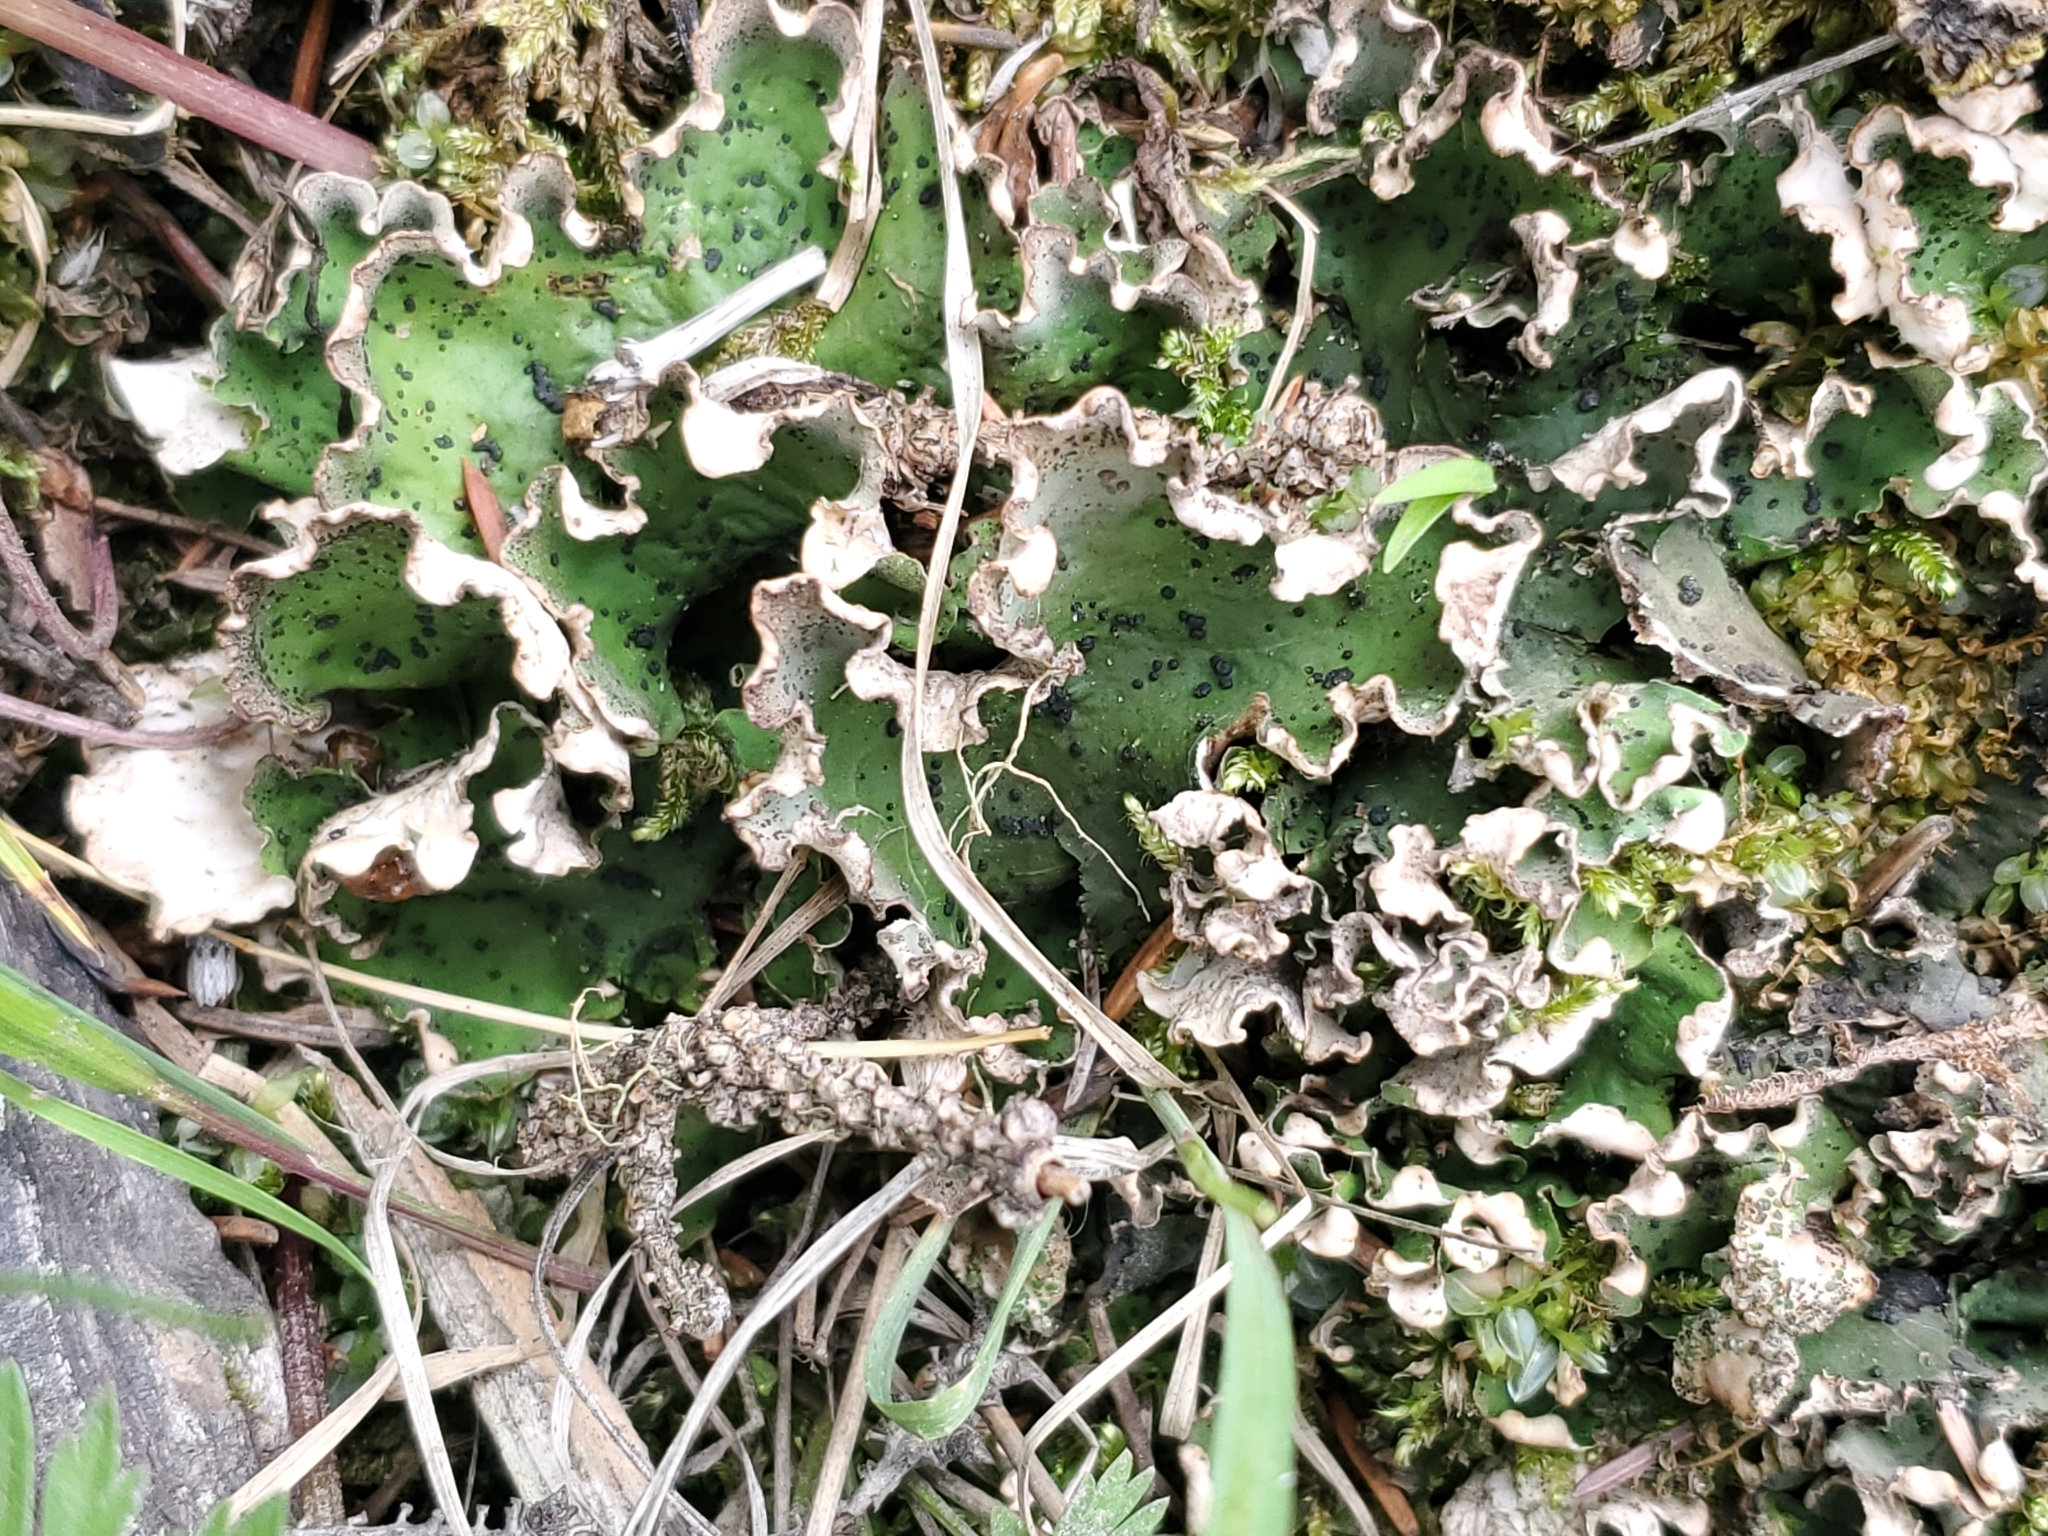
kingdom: Fungi
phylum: Ascomycota
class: Lecanoromycetes
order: Peltigerales
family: Peltigeraceae
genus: Peltigera
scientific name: Peltigera aphthosa
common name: Common freckle pelt lichen
